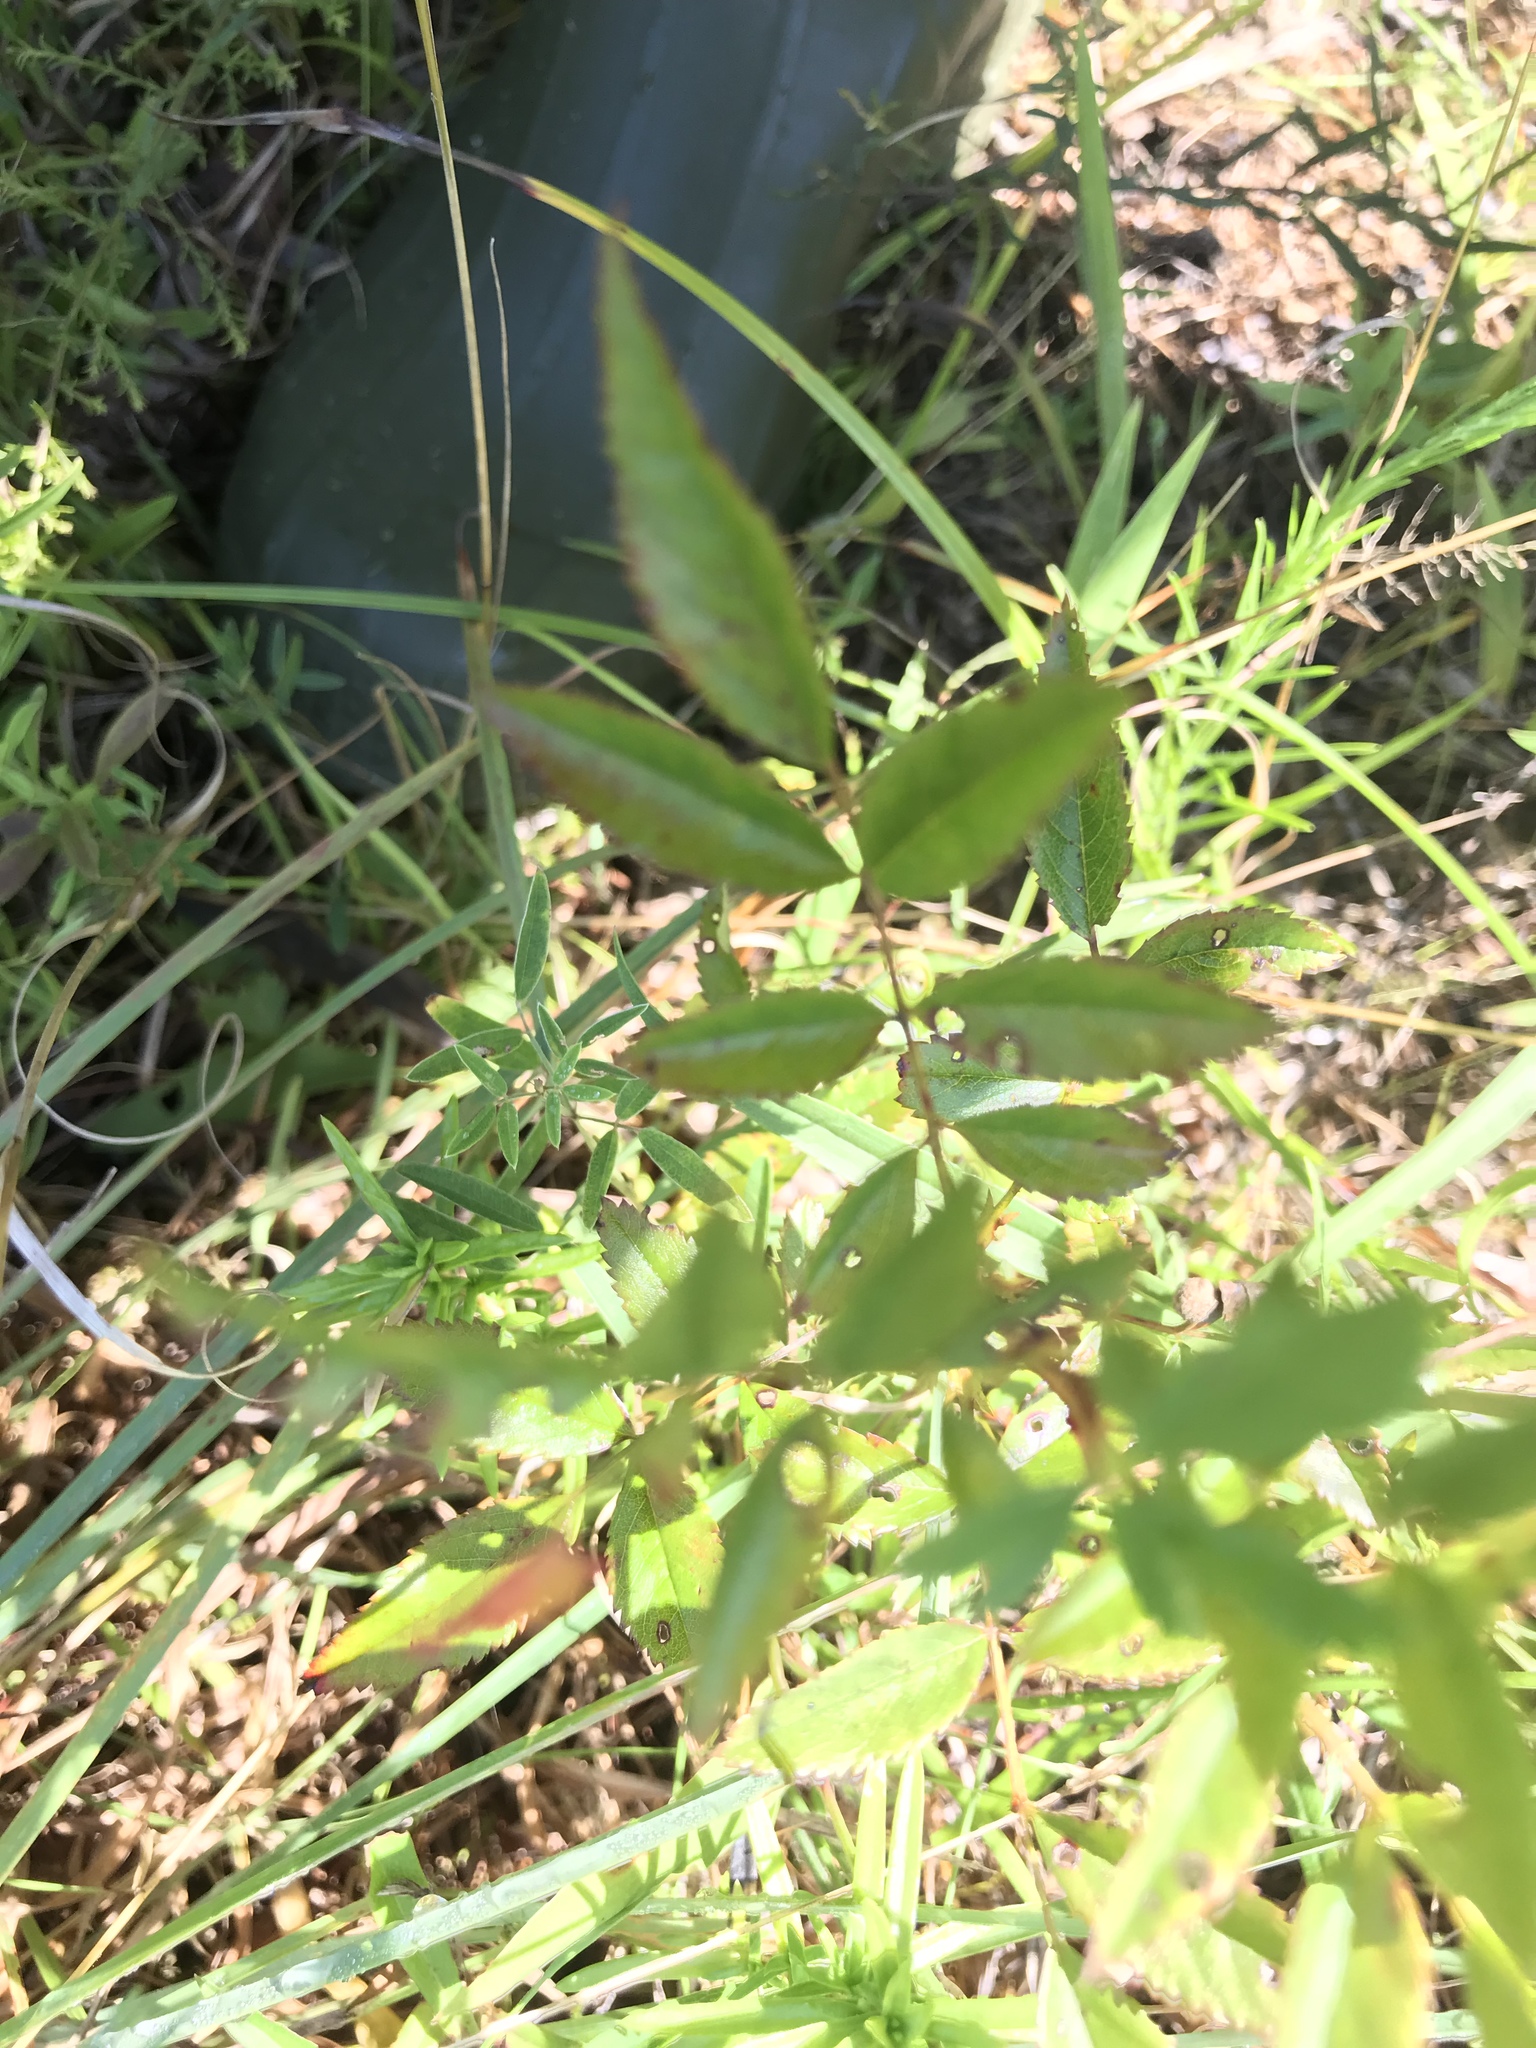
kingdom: Plantae
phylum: Tracheophyta
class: Magnoliopsida
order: Rosales
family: Rosaceae
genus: Rosa
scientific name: Rosa carolina
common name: Pasture rose
